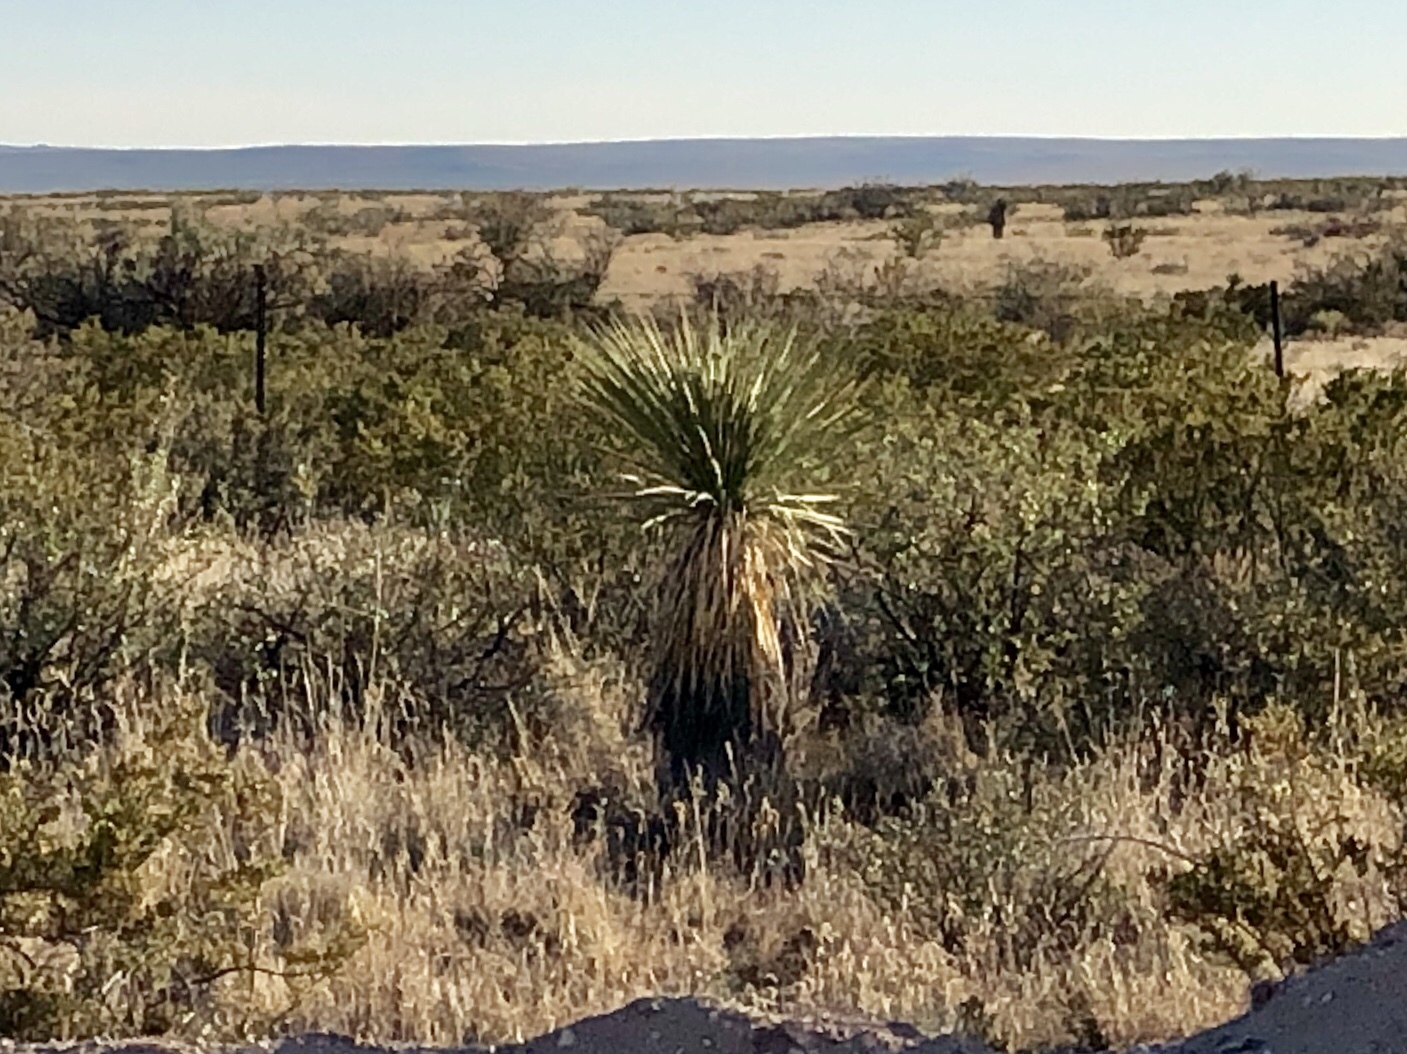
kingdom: Plantae
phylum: Tracheophyta
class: Liliopsida
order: Asparagales
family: Asparagaceae
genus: Yucca
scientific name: Yucca elata
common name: Palmella
